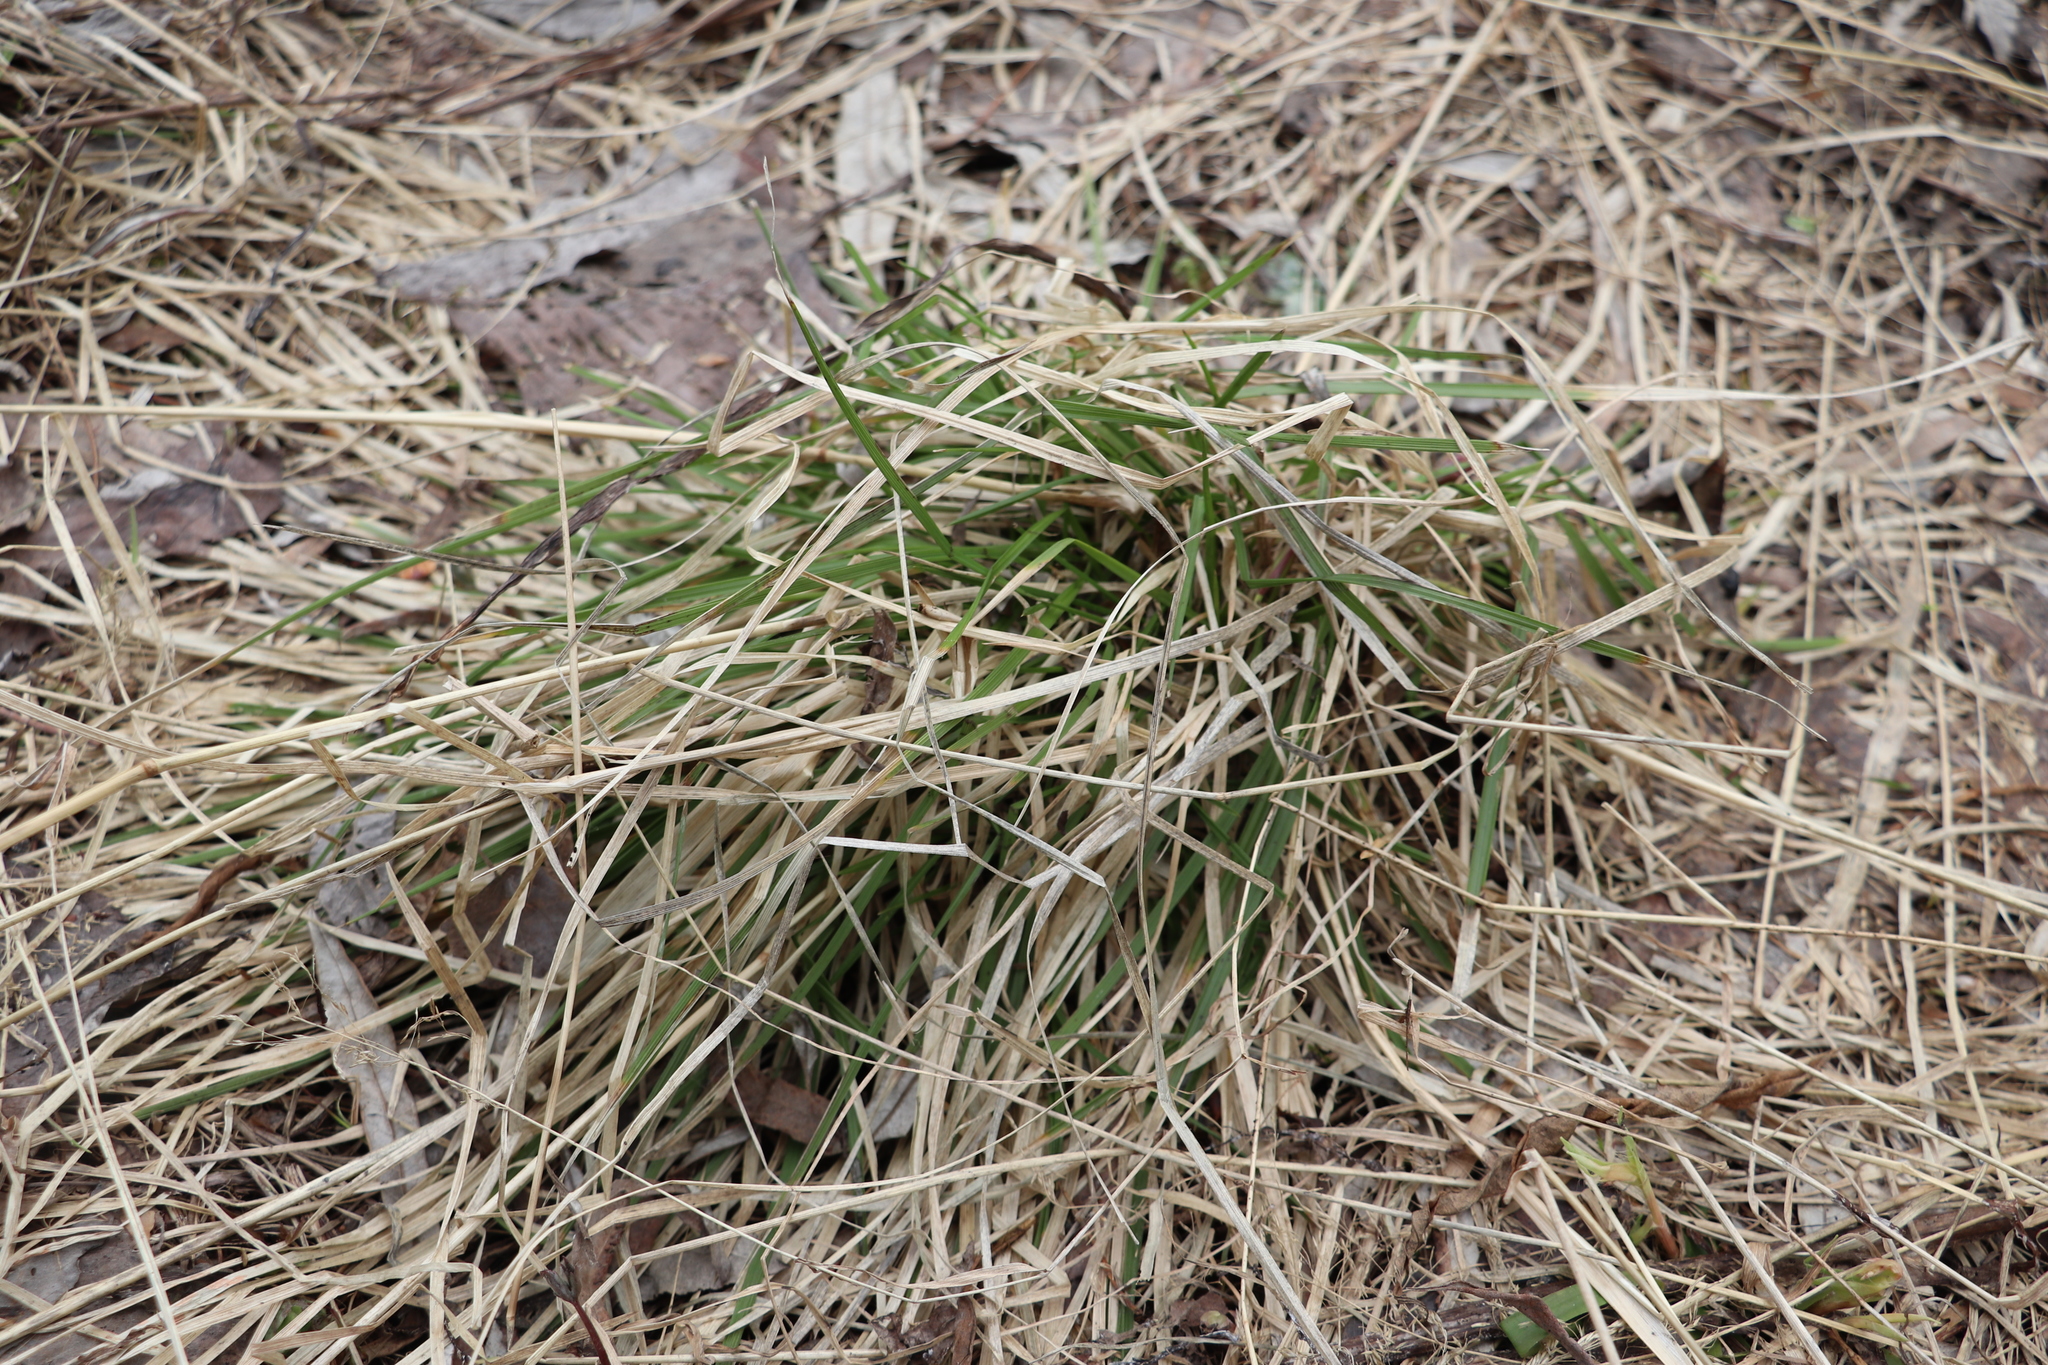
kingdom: Plantae
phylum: Tracheophyta
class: Liliopsida
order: Poales
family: Poaceae
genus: Deschampsia
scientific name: Deschampsia cespitosa
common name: Tufted hair-grass
